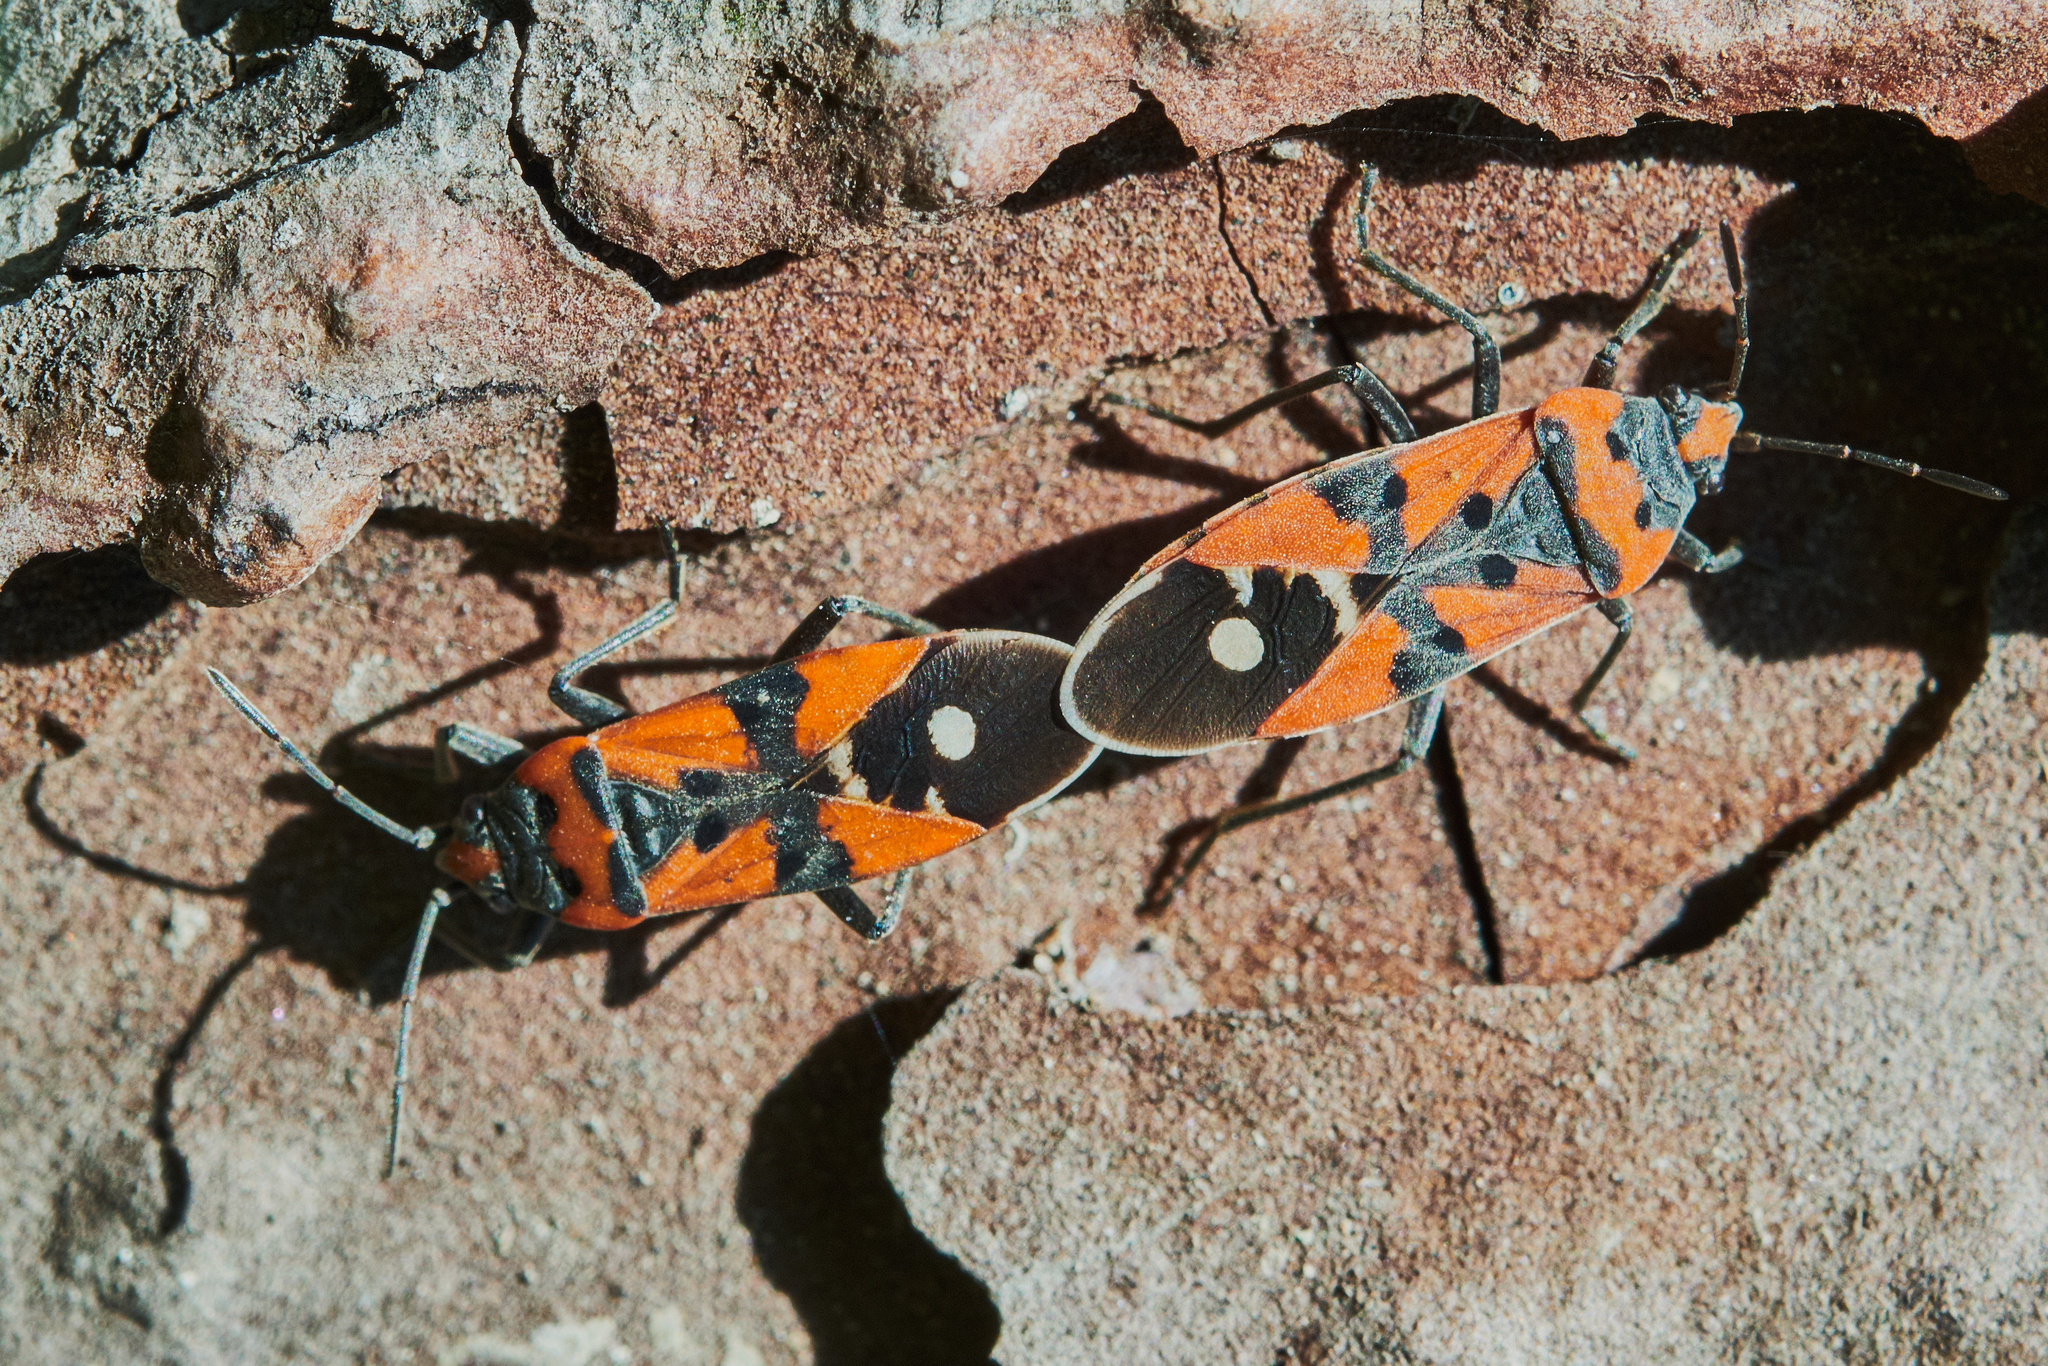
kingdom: Animalia
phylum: Arthropoda
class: Insecta
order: Hemiptera
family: Lygaeidae
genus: Lygaeus
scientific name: Lygaeus equestris
